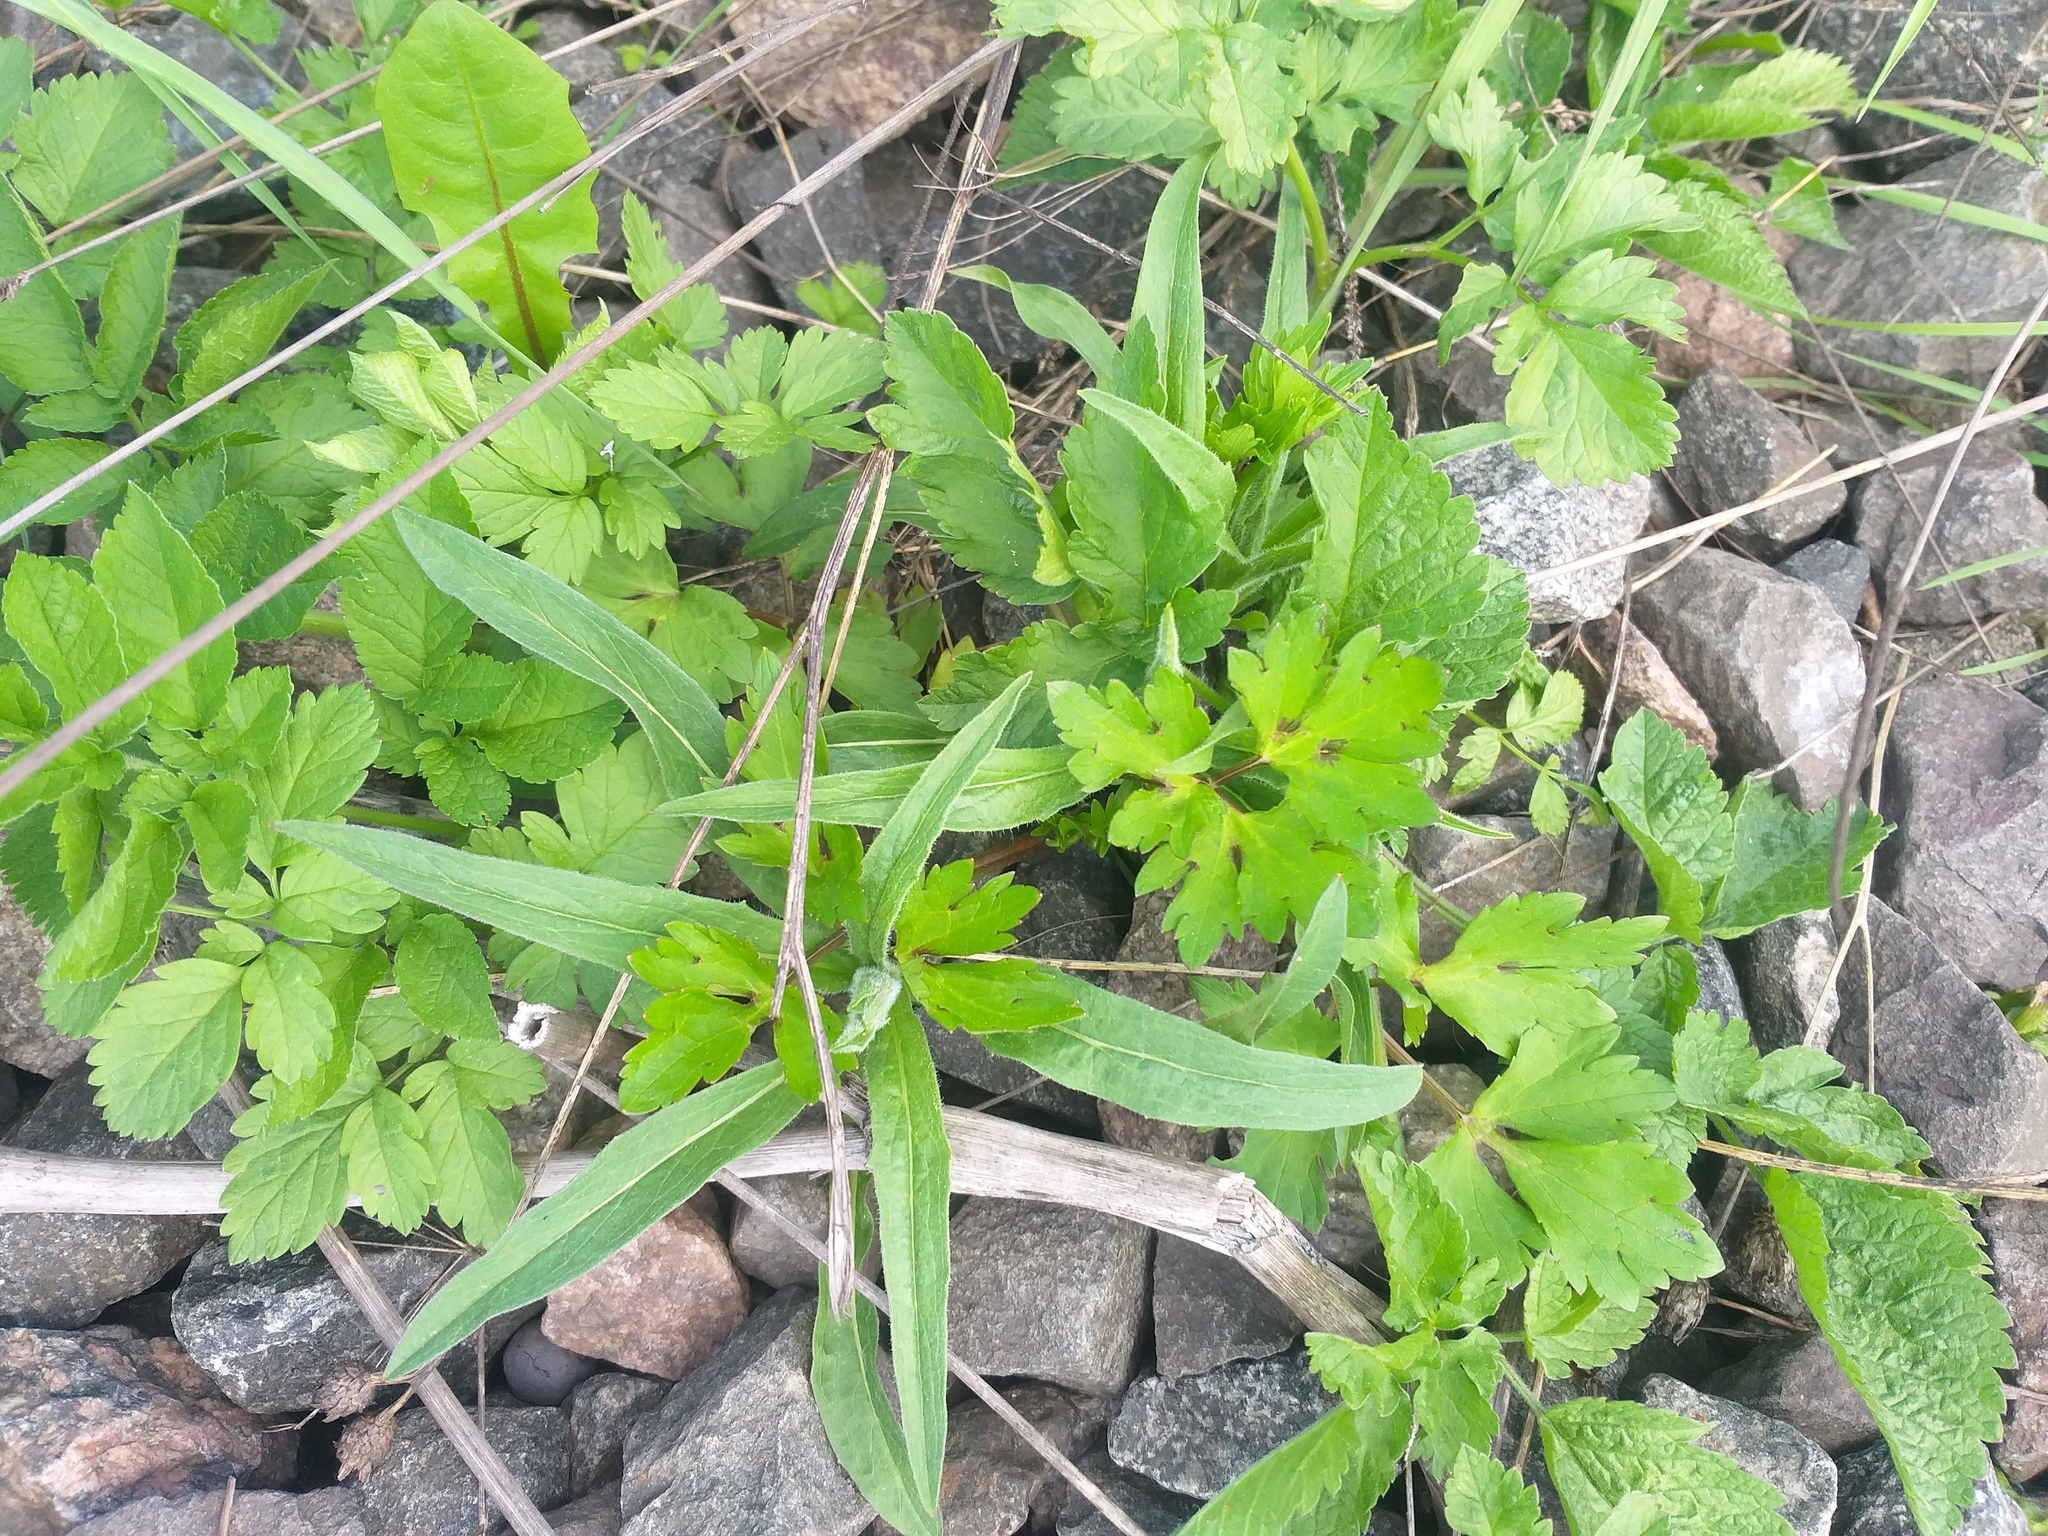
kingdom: Plantae
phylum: Tracheophyta
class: Magnoliopsida
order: Ranunculales
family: Ranunculaceae
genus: Ranunculus
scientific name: Ranunculus repens
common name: Creeping buttercup
